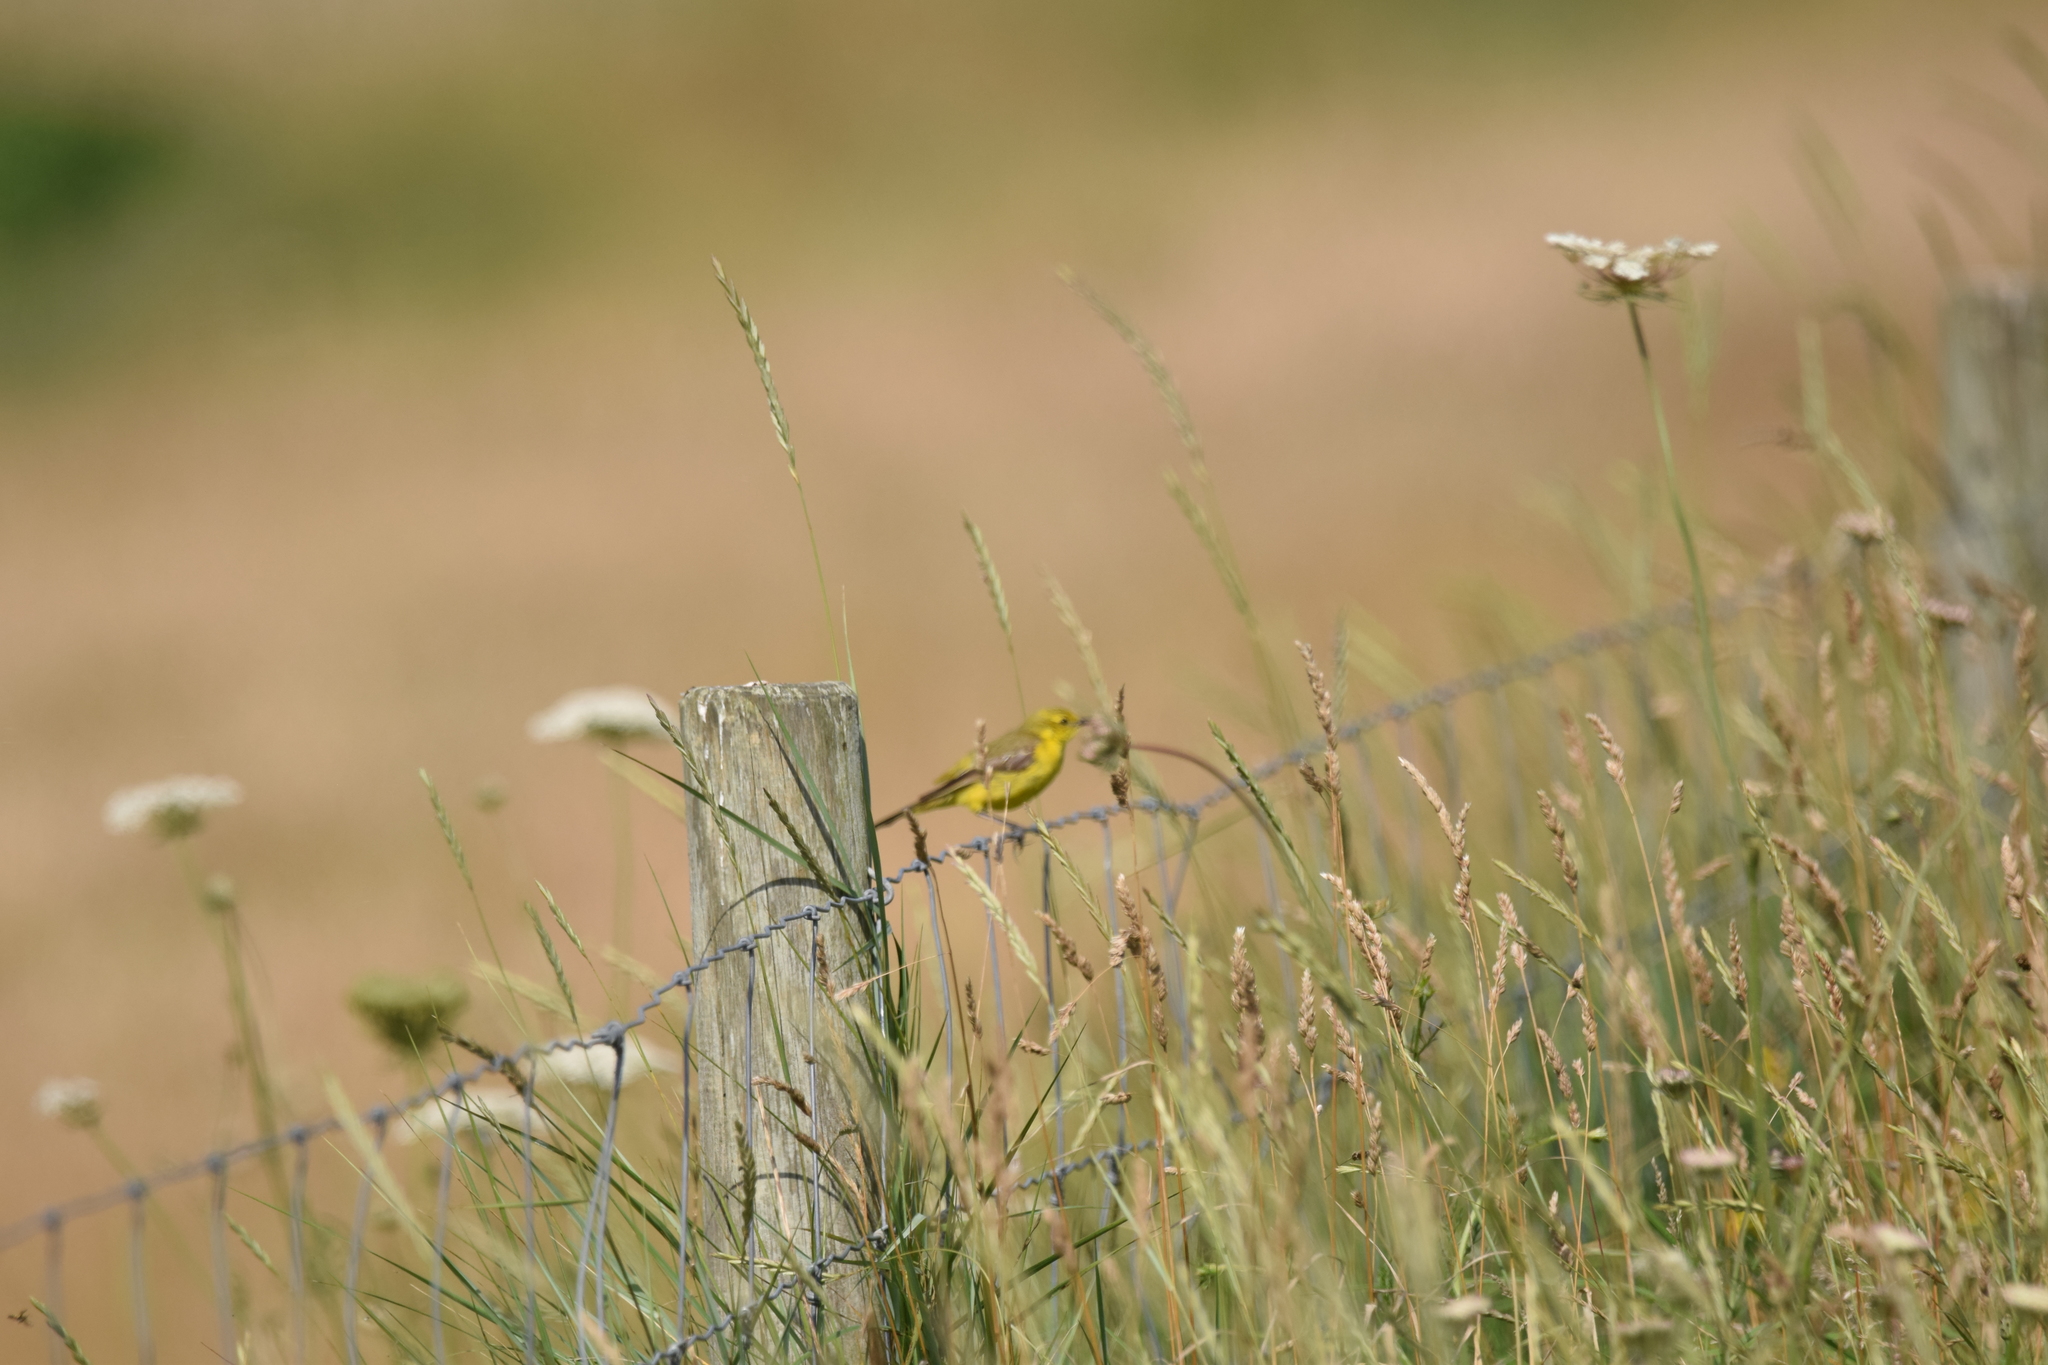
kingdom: Animalia
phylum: Chordata
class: Aves
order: Passeriformes
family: Motacillidae
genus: Motacilla
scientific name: Motacilla flava
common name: Western yellow wagtail
